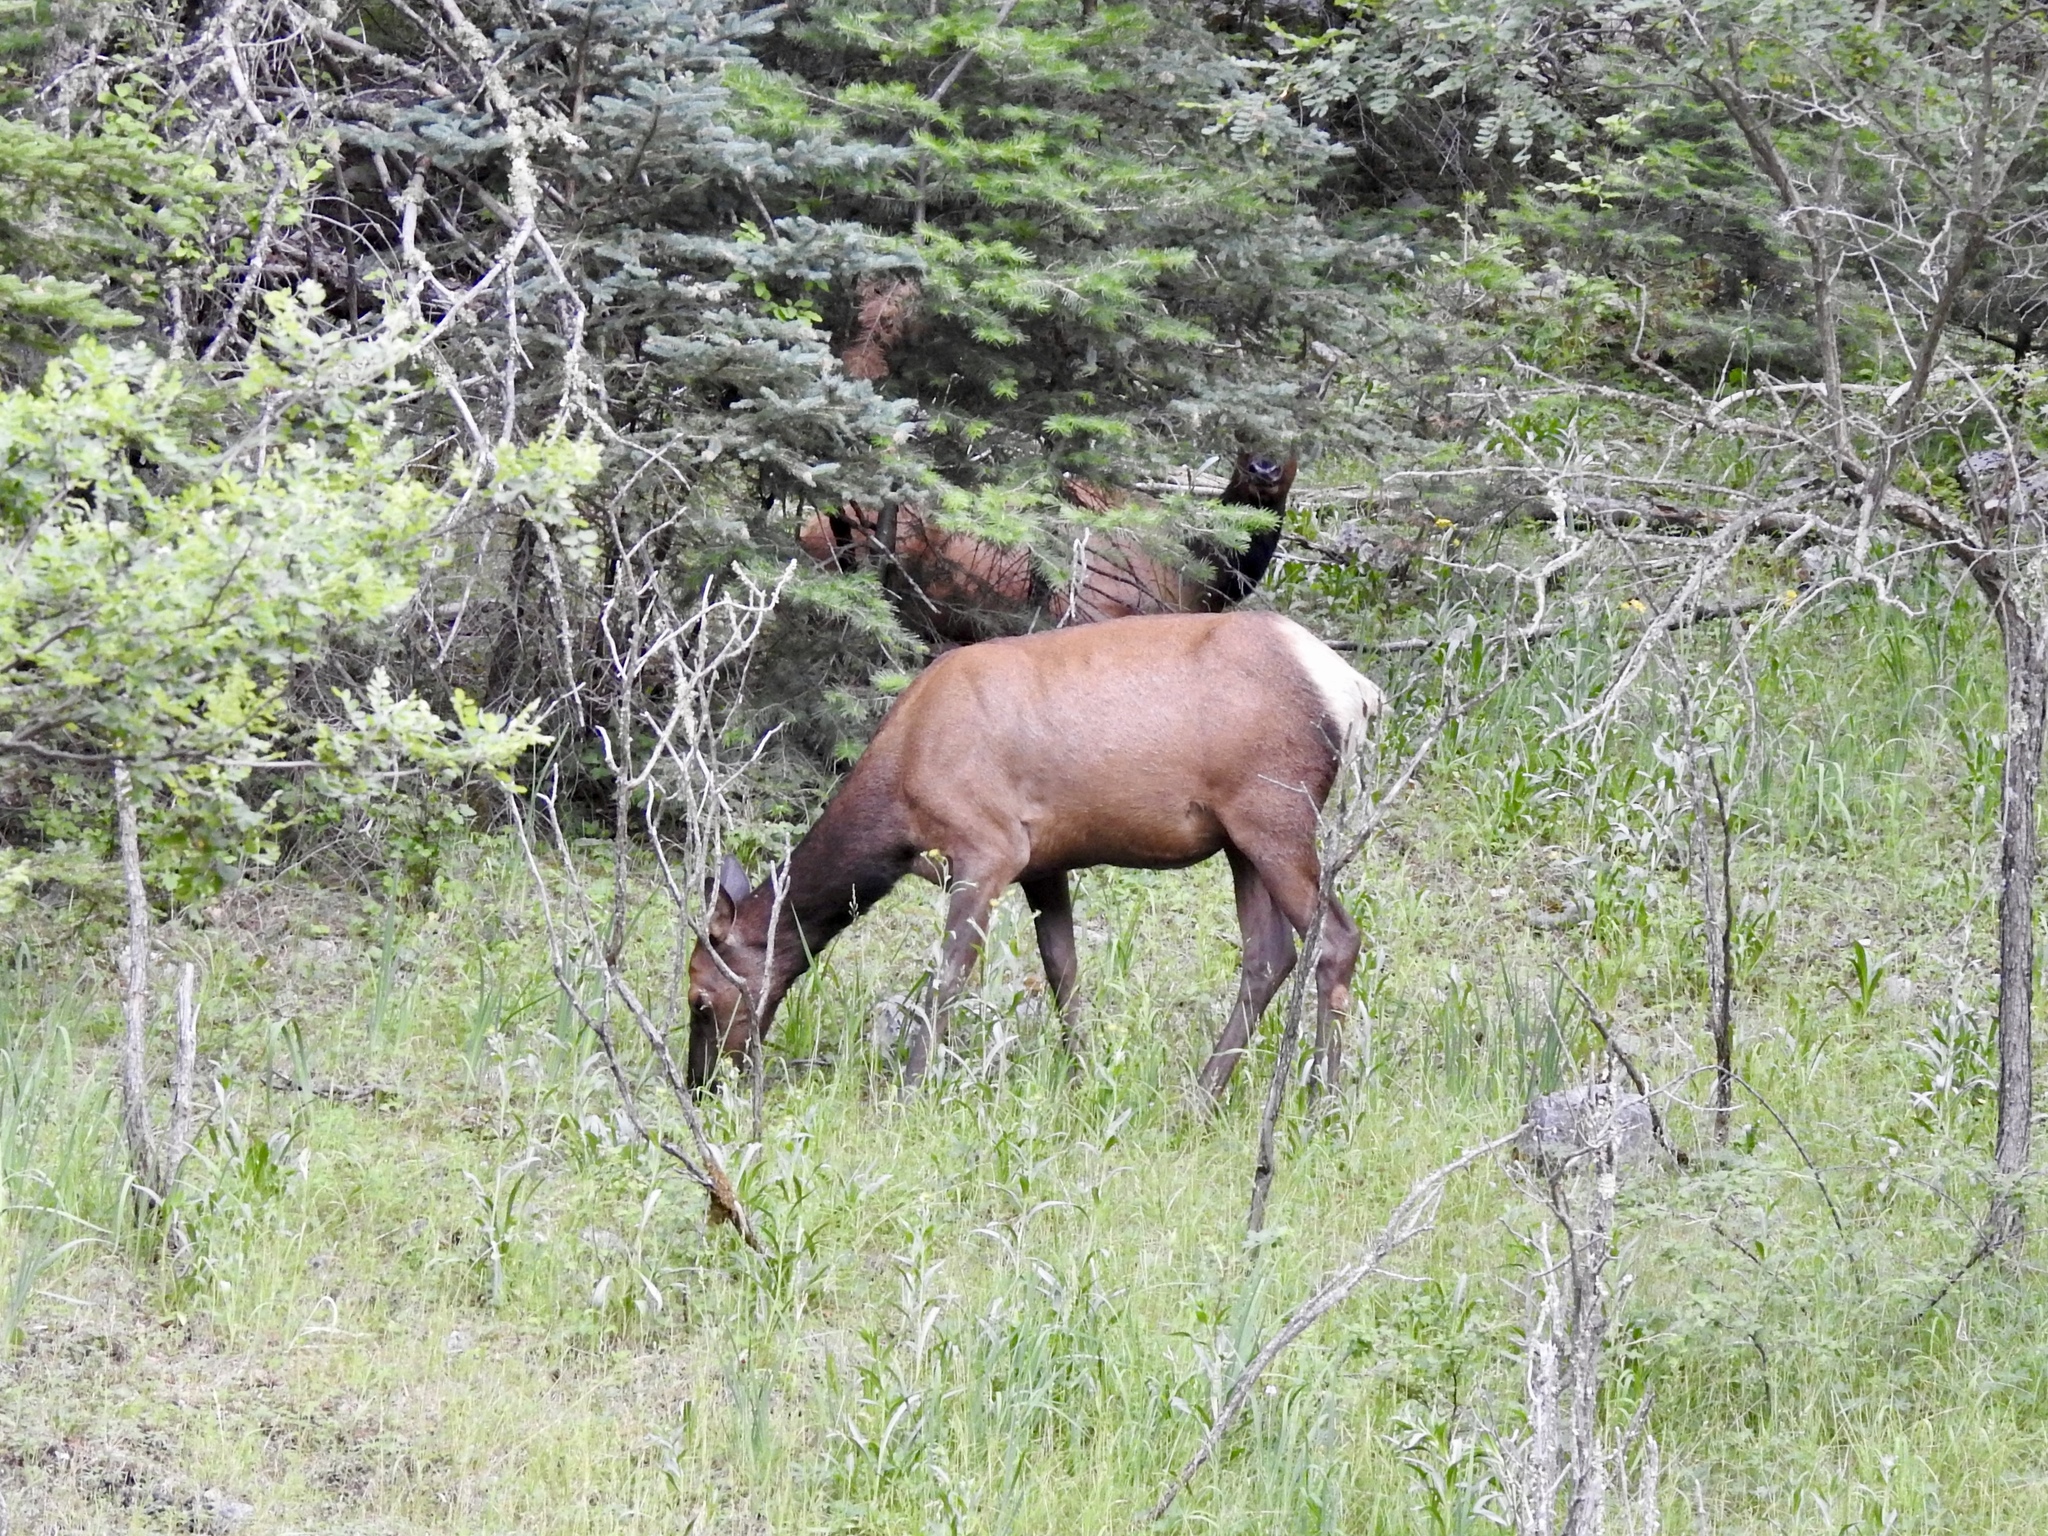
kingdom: Animalia
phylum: Chordata
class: Mammalia
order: Artiodactyla
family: Cervidae
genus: Cervus
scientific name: Cervus elaphus
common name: Red deer
